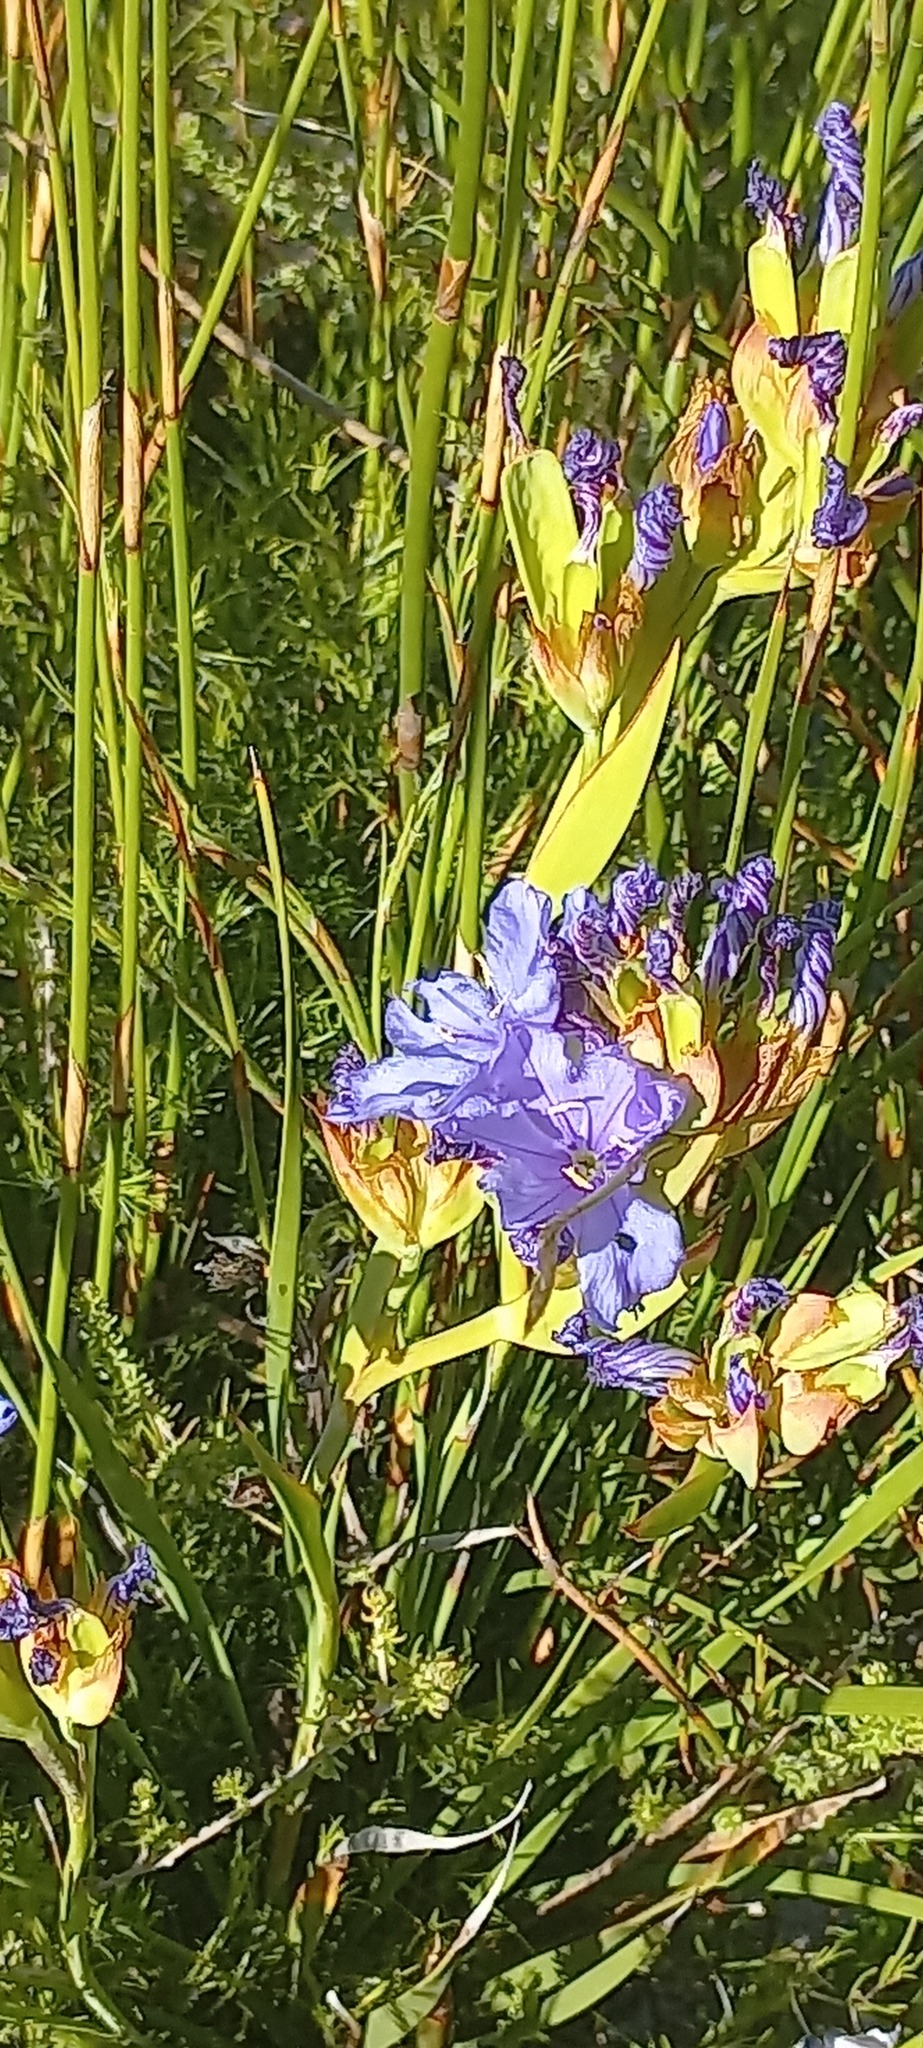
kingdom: Plantae
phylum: Tracheophyta
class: Liliopsida
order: Asparagales
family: Iridaceae
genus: Aristea
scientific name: Aristea juncifolia
